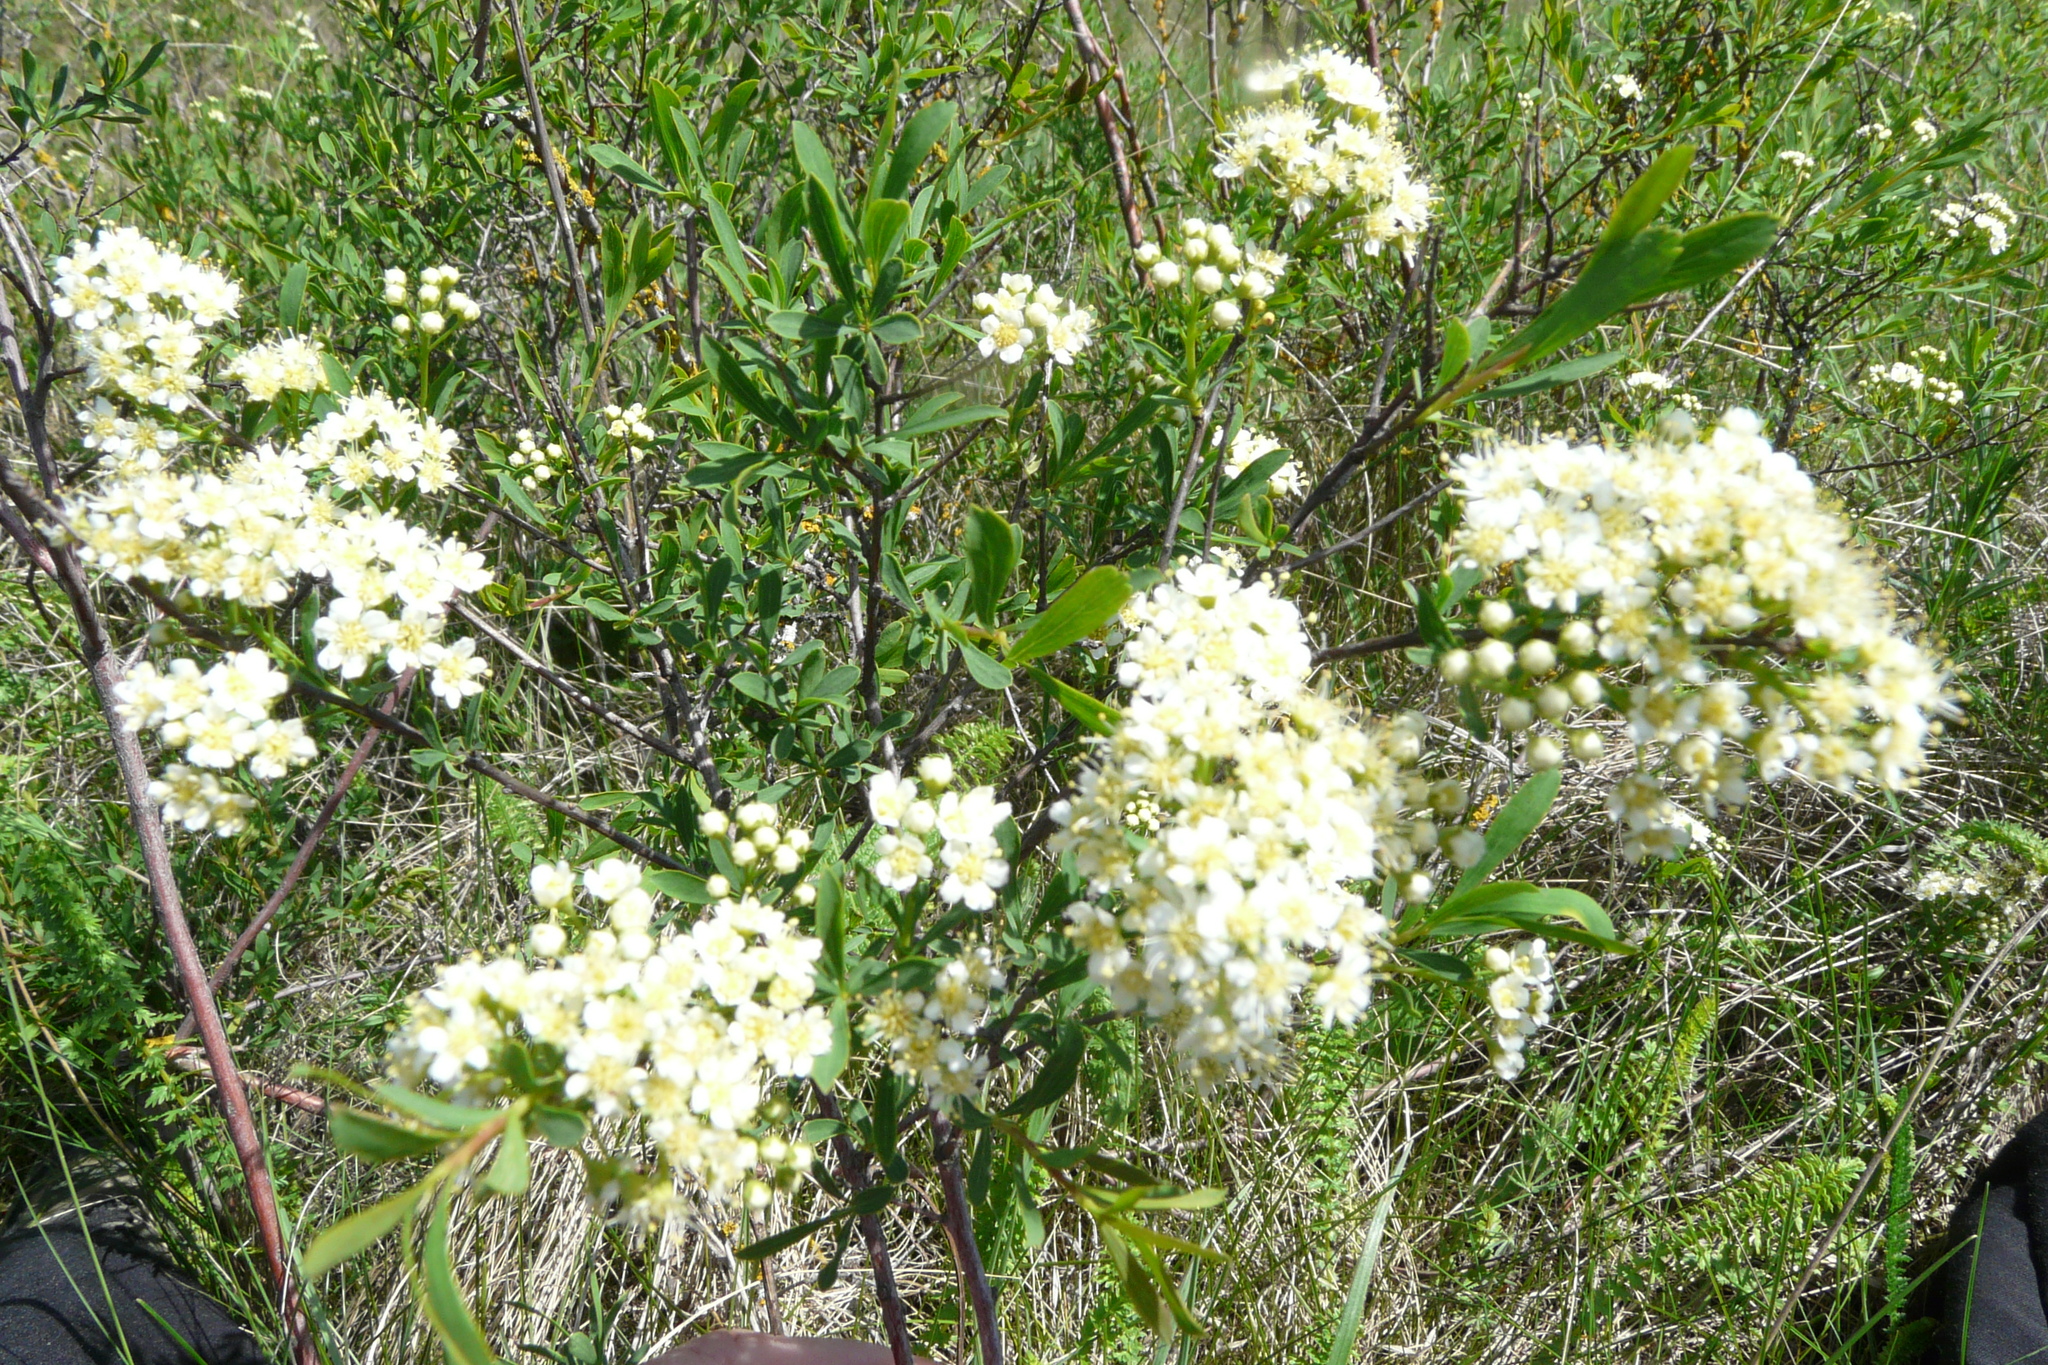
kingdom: Plantae
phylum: Tracheophyta
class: Magnoliopsida
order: Rosales
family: Rosaceae
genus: Spiraea
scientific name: Spiraea crenata
